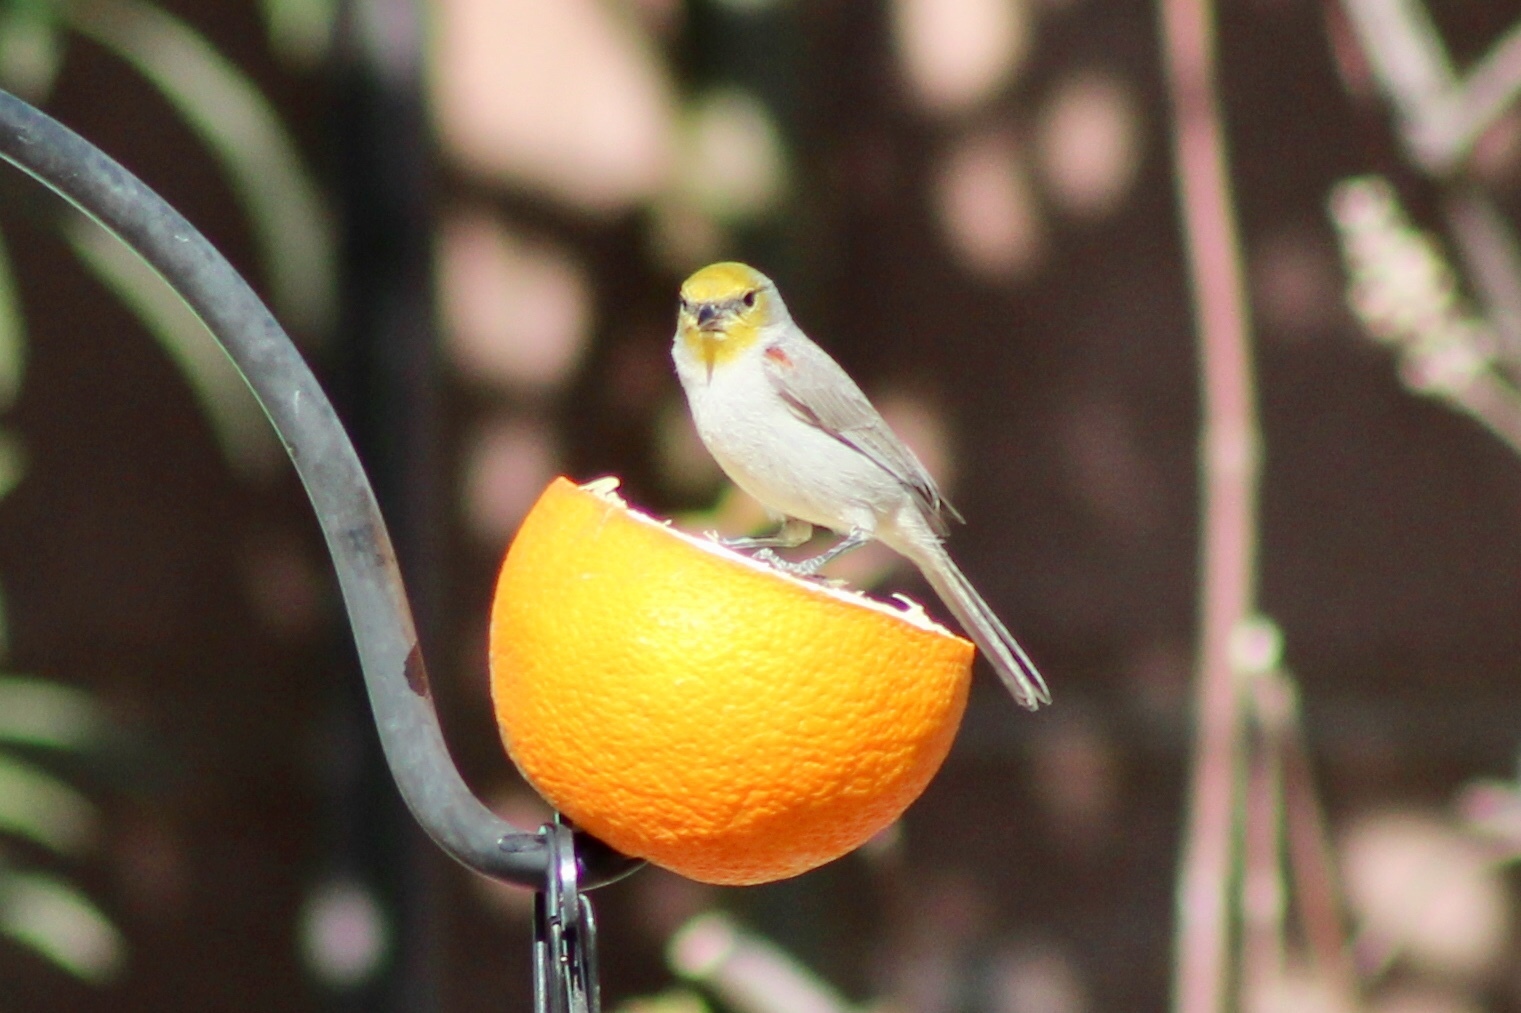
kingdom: Animalia
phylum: Chordata
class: Aves
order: Passeriformes
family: Remizidae
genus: Auriparus
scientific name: Auriparus flaviceps
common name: Verdin
